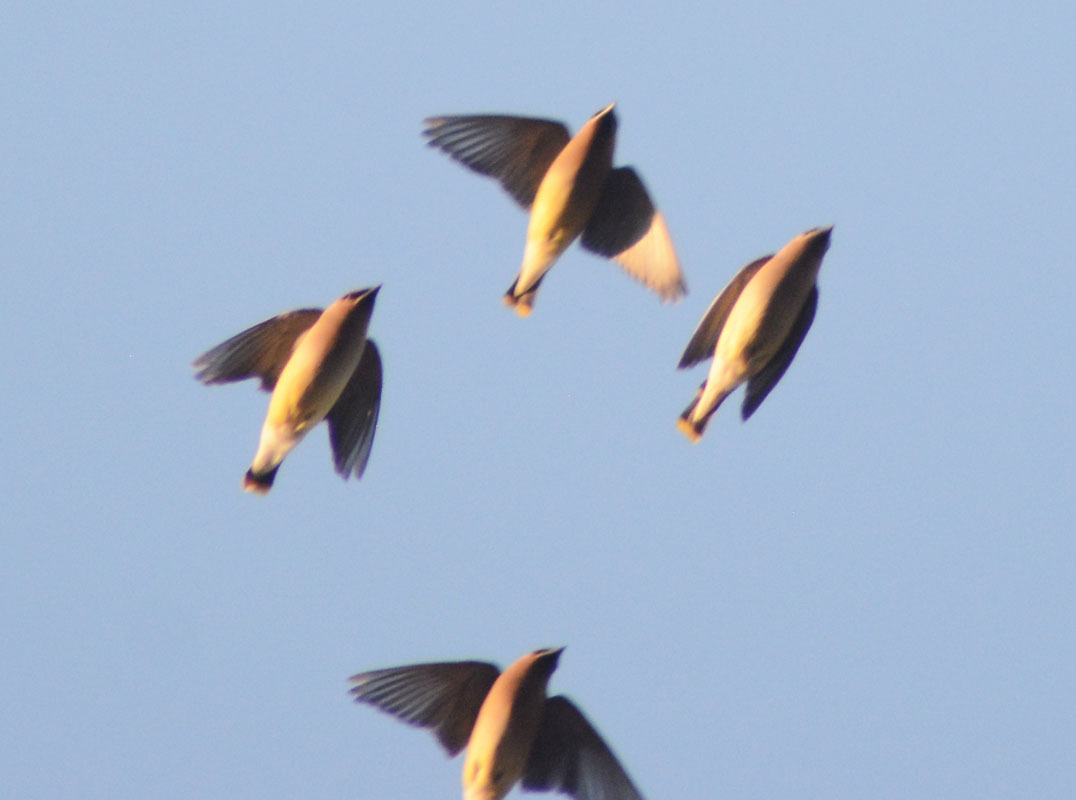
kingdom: Animalia
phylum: Chordata
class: Aves
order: Passeriformes
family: Bombycillidae
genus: Bombycilla
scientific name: Bombycilla cedrorum
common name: Cedar waxwing
